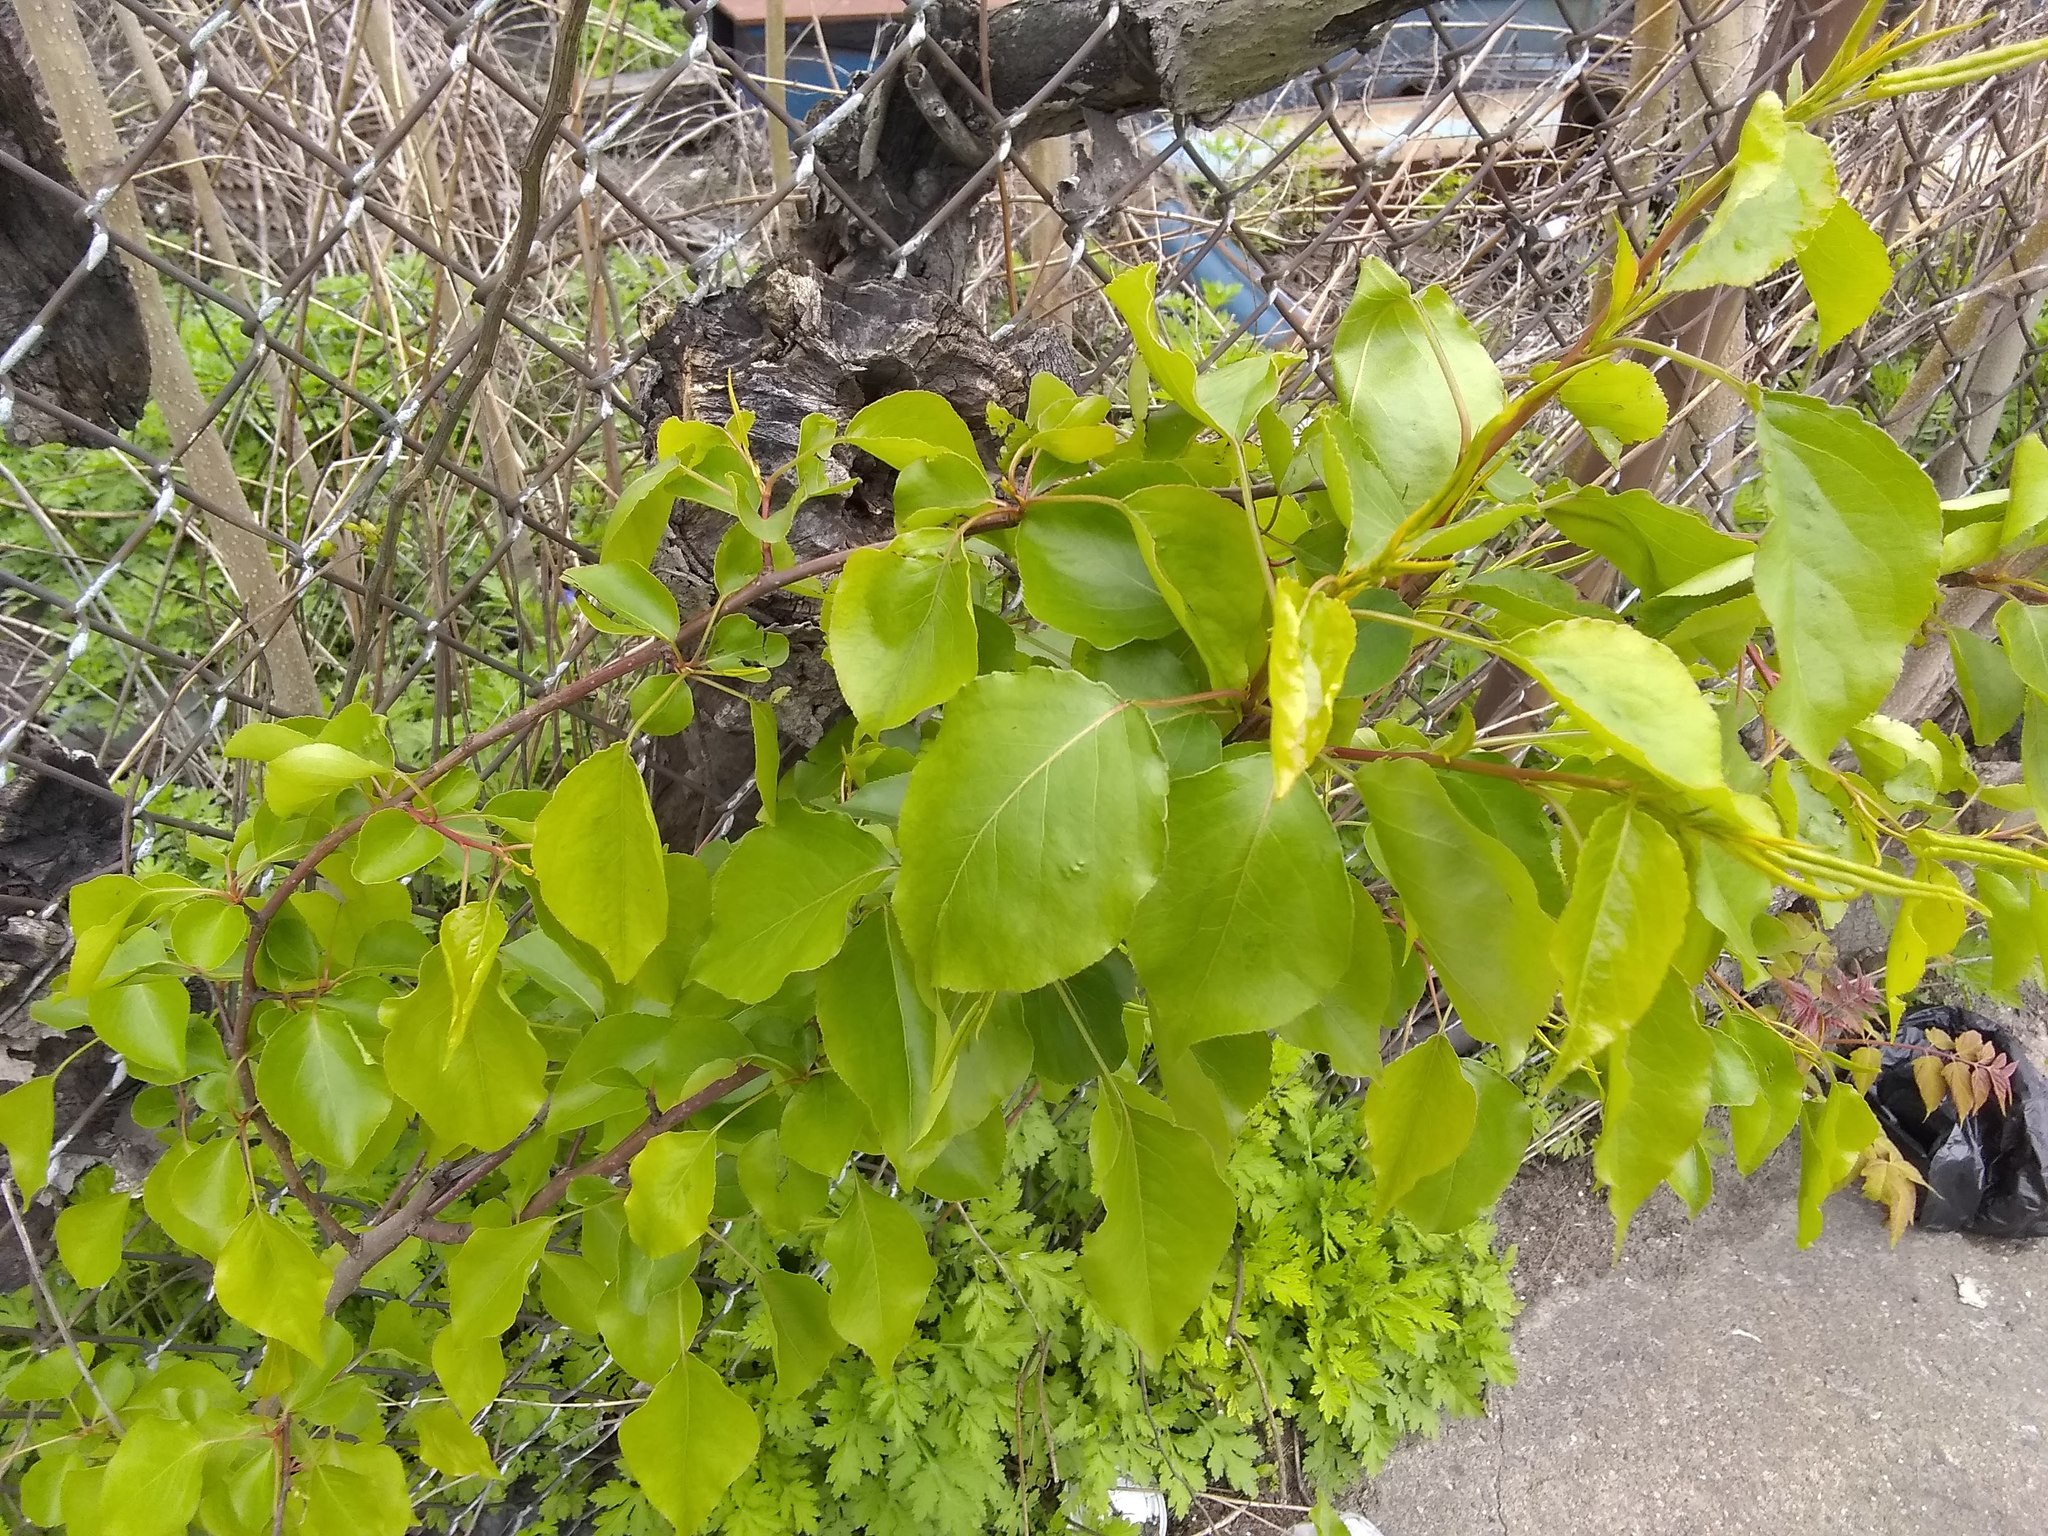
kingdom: Plantae
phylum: Tracheophyta
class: Magnoliopsida
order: Rosales
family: Rosaceae
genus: Pyrus
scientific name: Pyrus calleryana
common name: Callery pear
